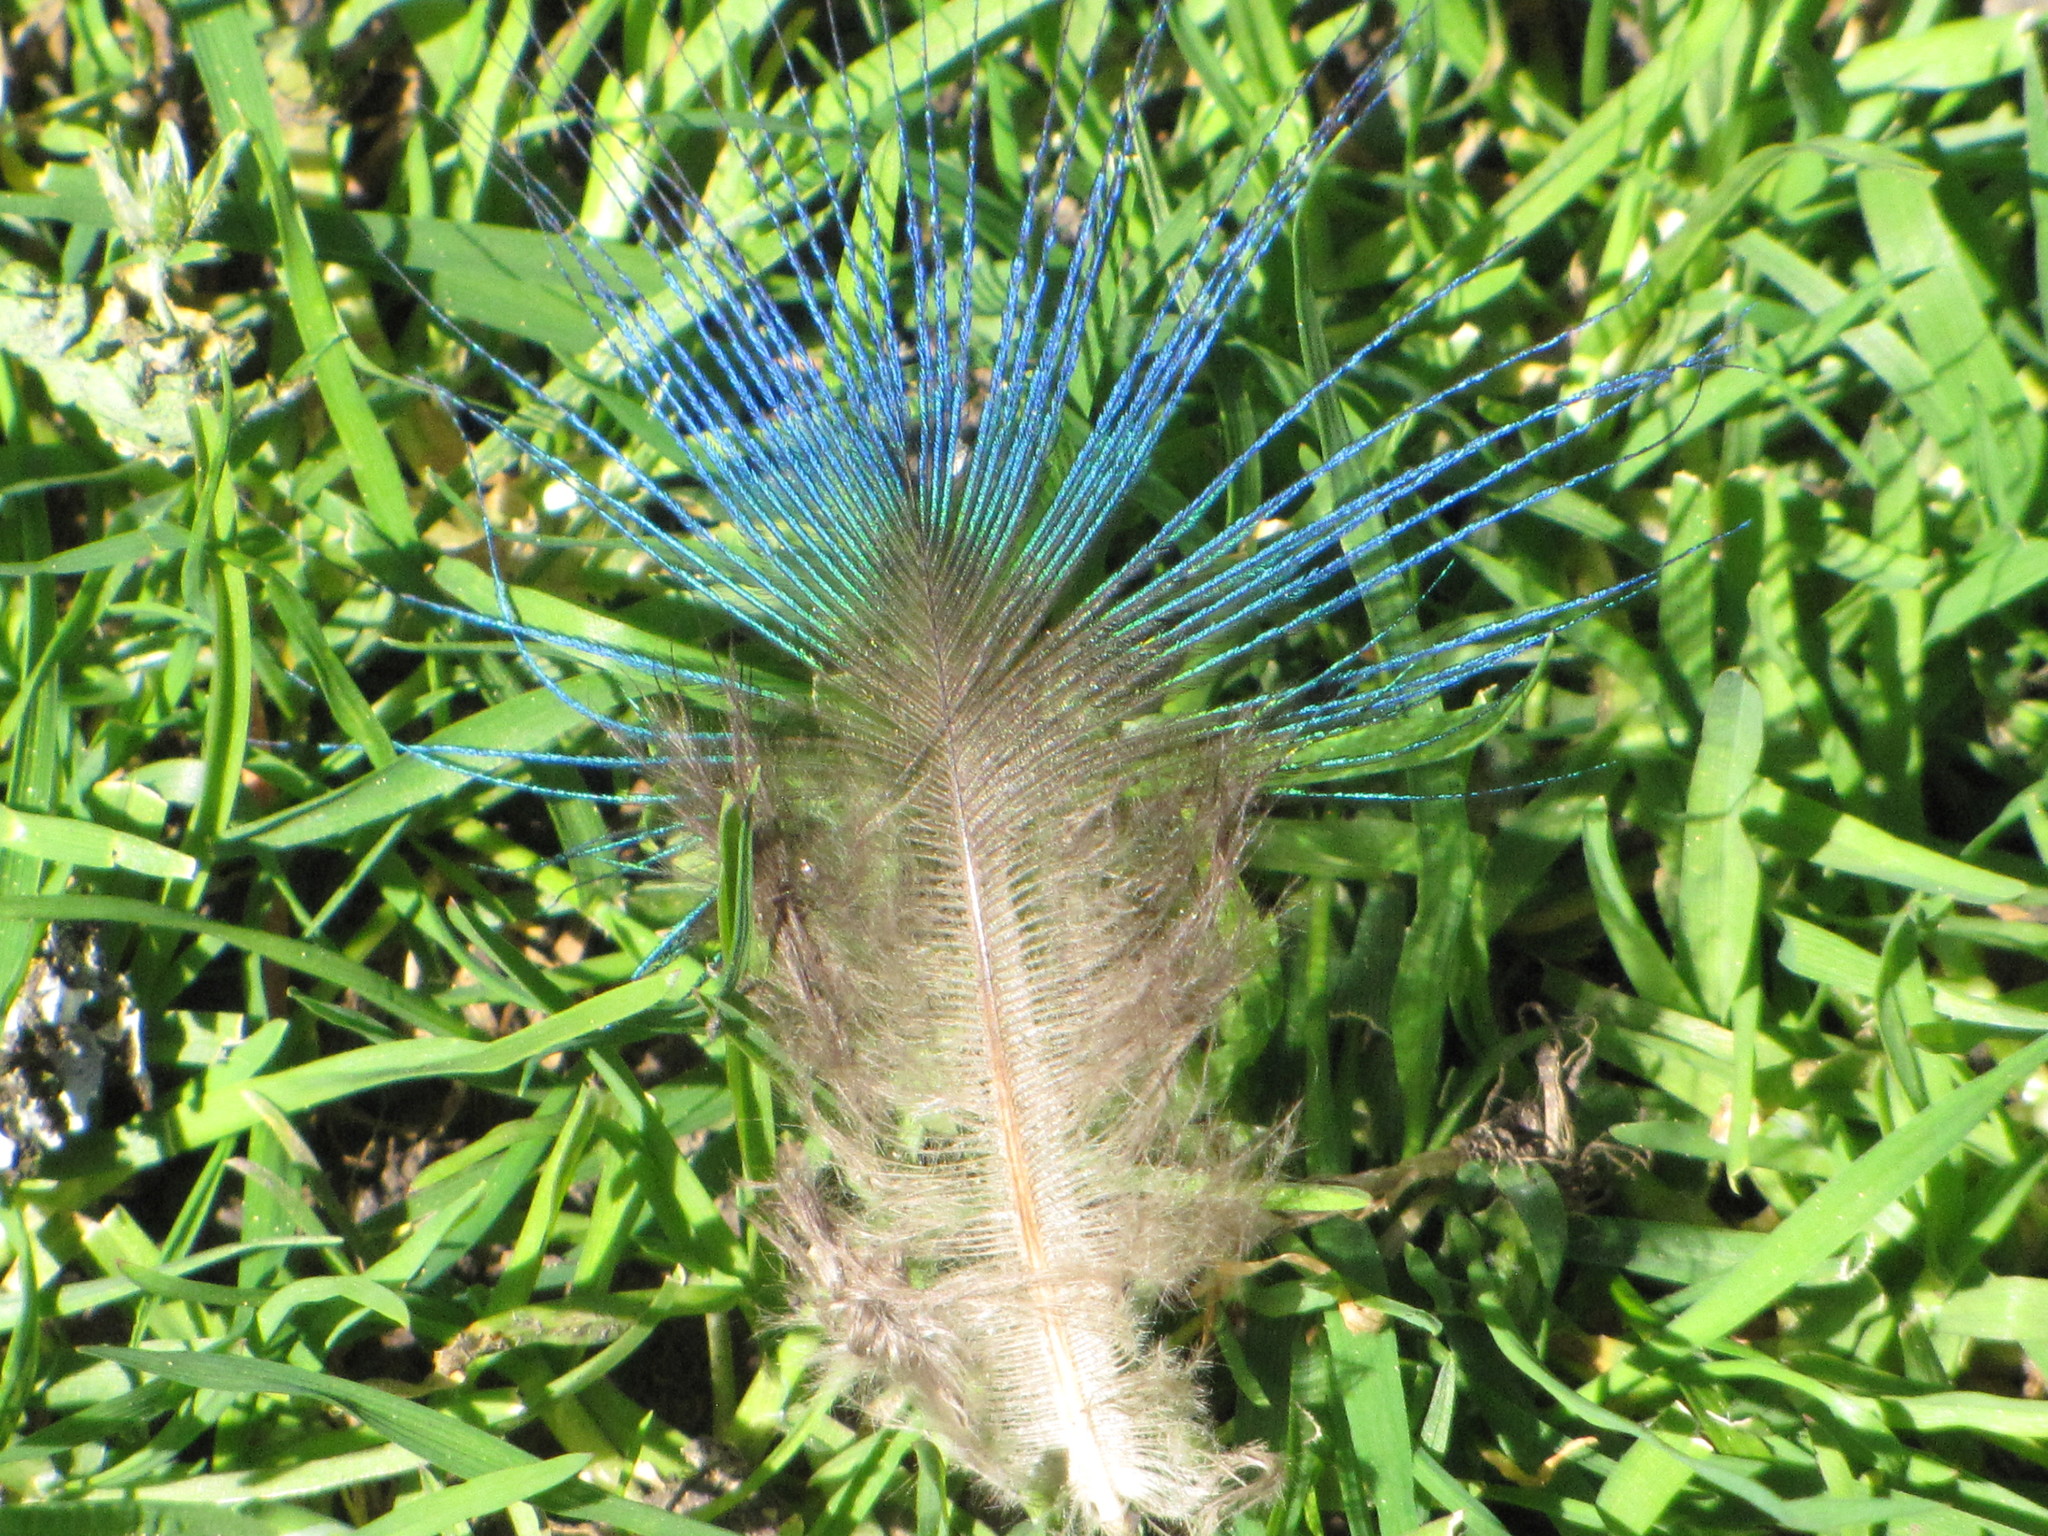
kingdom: Animalia
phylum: Chordata
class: Aves
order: Galliformes
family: Phasianidae
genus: Pavo
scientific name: Pavo cristatus
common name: Indian peafowl
